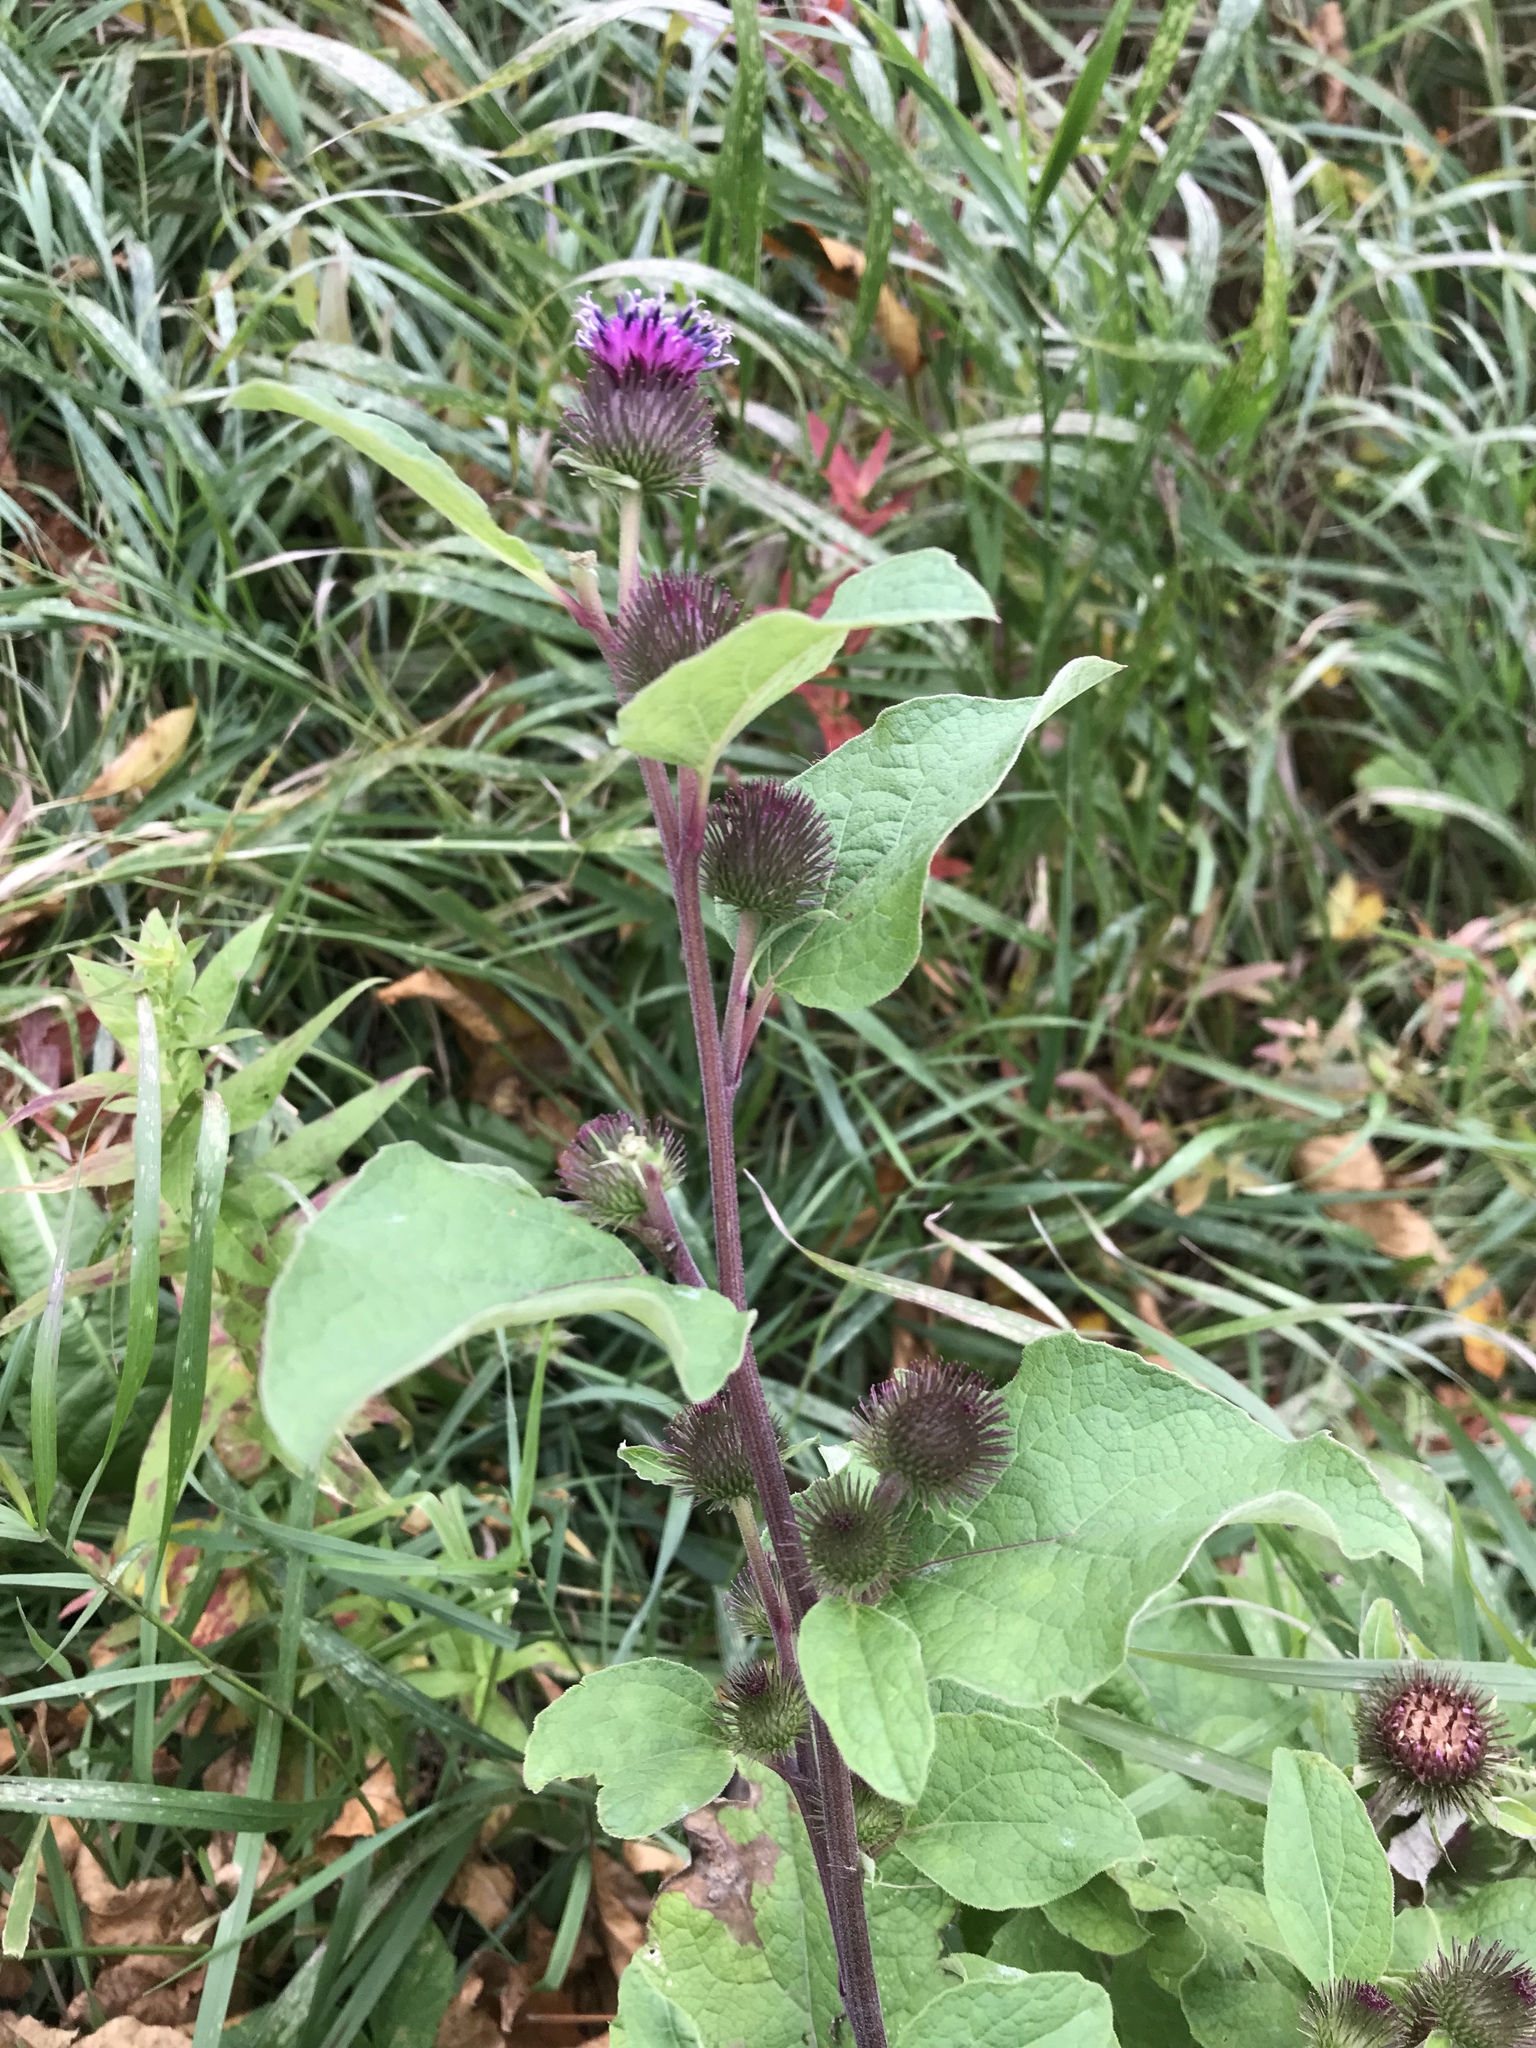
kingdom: Plantae
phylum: Tracheophyta
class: Magnoliopsida
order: Asterales
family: Asteraceae
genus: Arctium
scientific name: Arctium minus
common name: Lesser burdock
